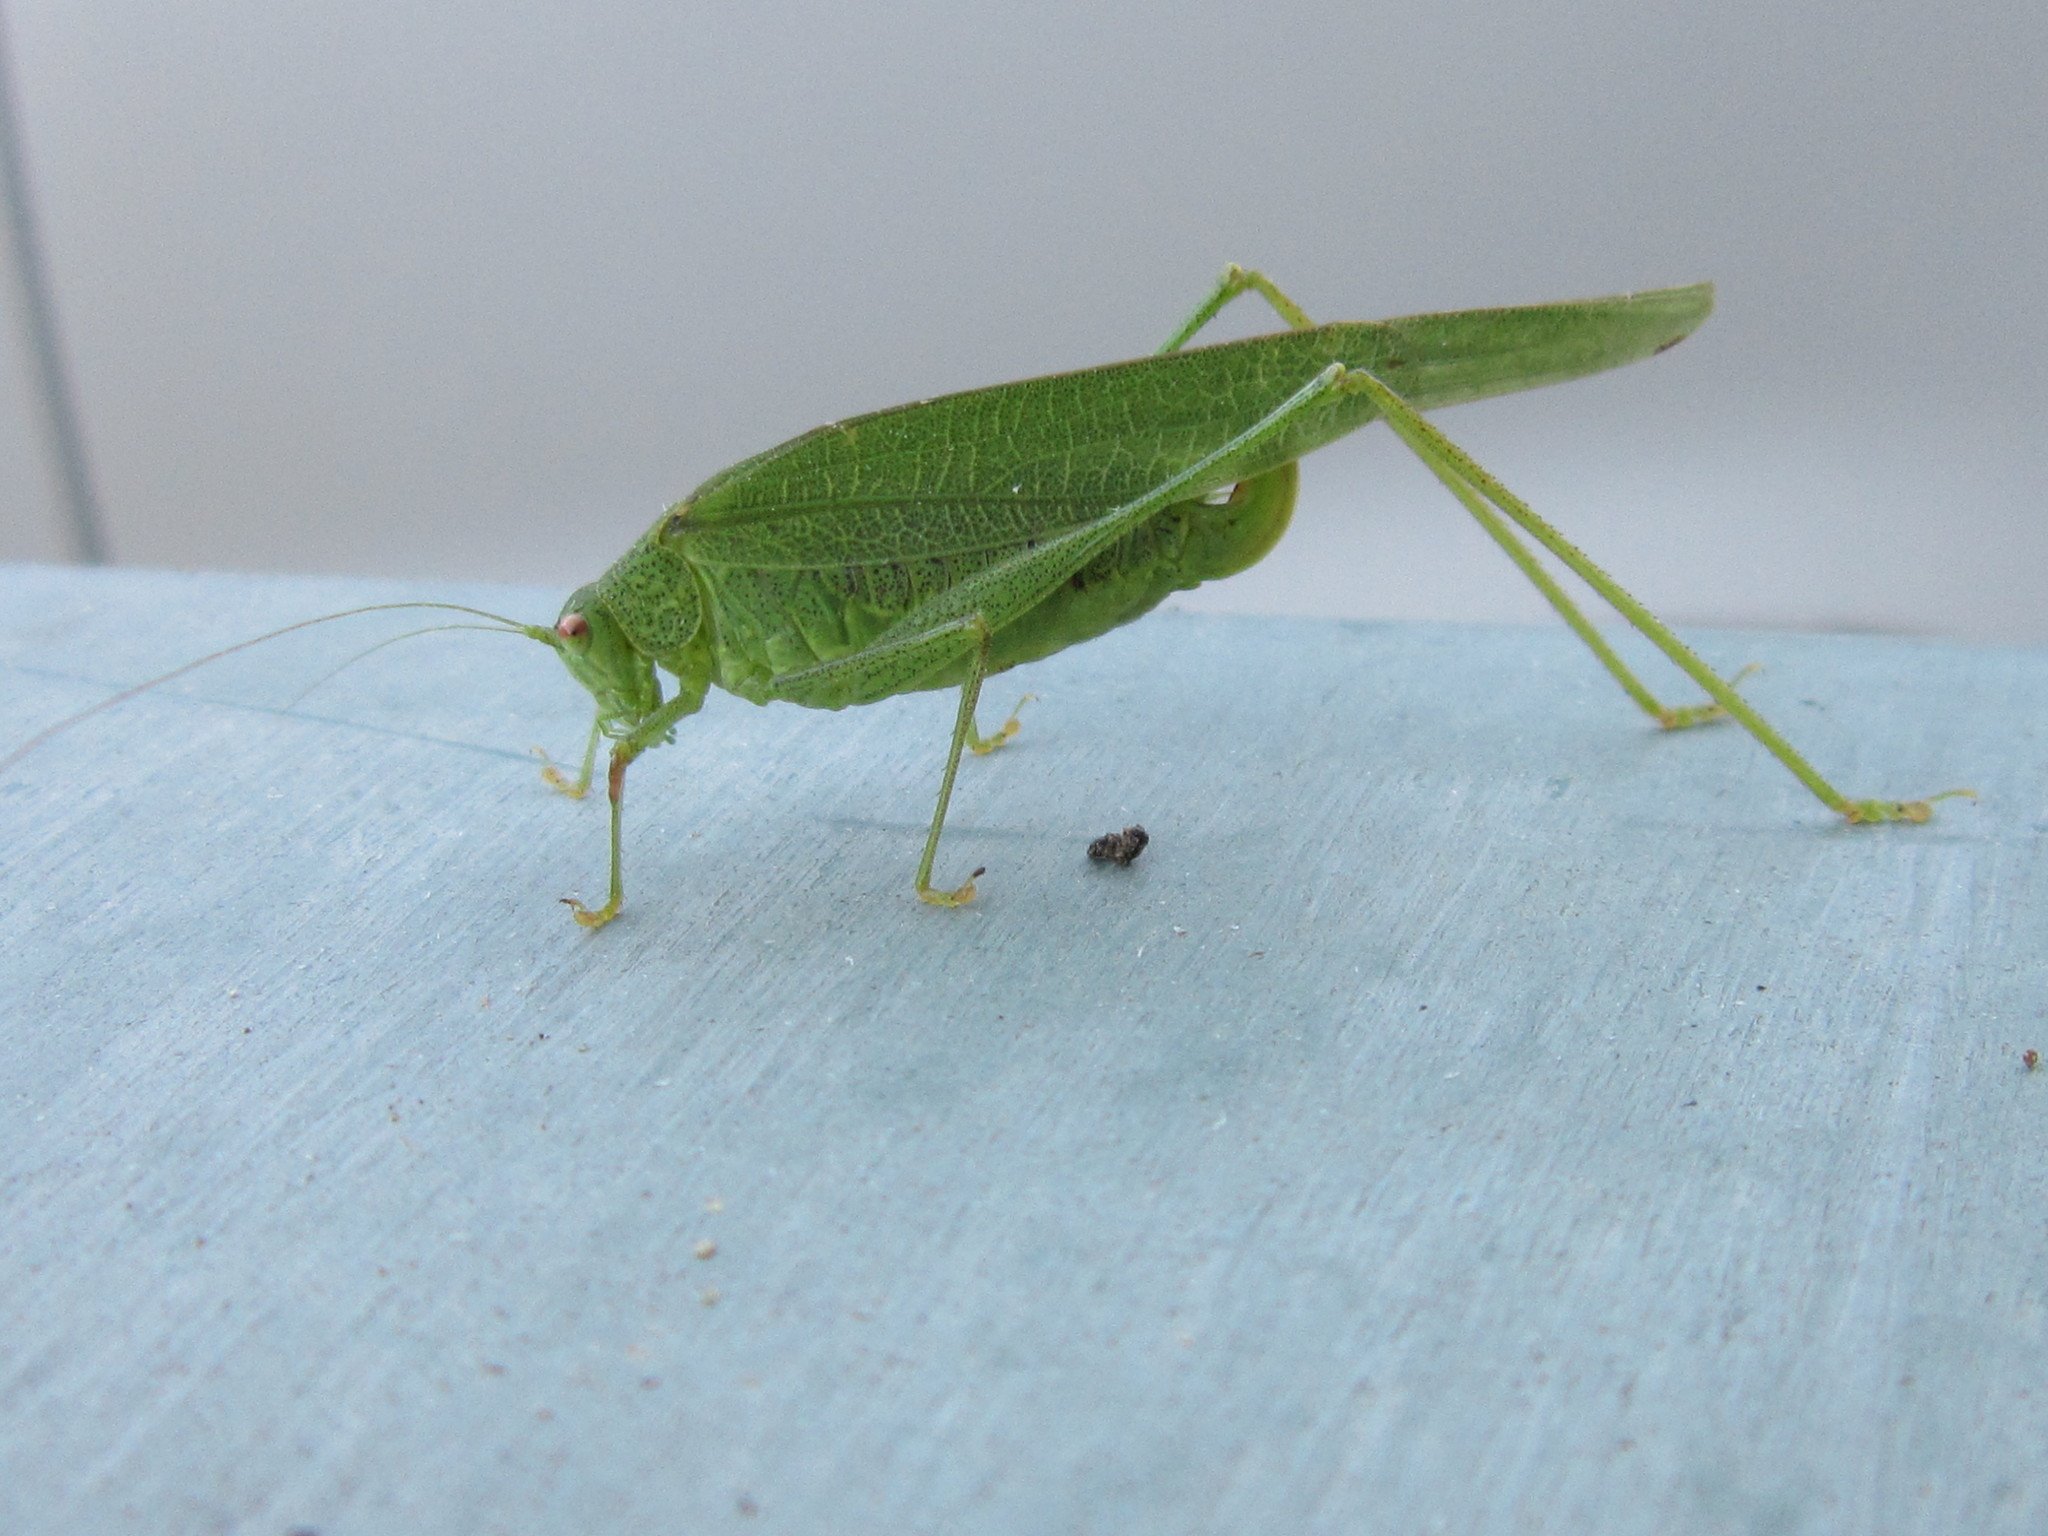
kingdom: Animalia
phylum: Arthropoda
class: Insecta
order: Orthoptera
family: Tettigoniidae
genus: Phaneroptera
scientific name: Phaneroptera nana
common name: Southern sickle bush-cricket
